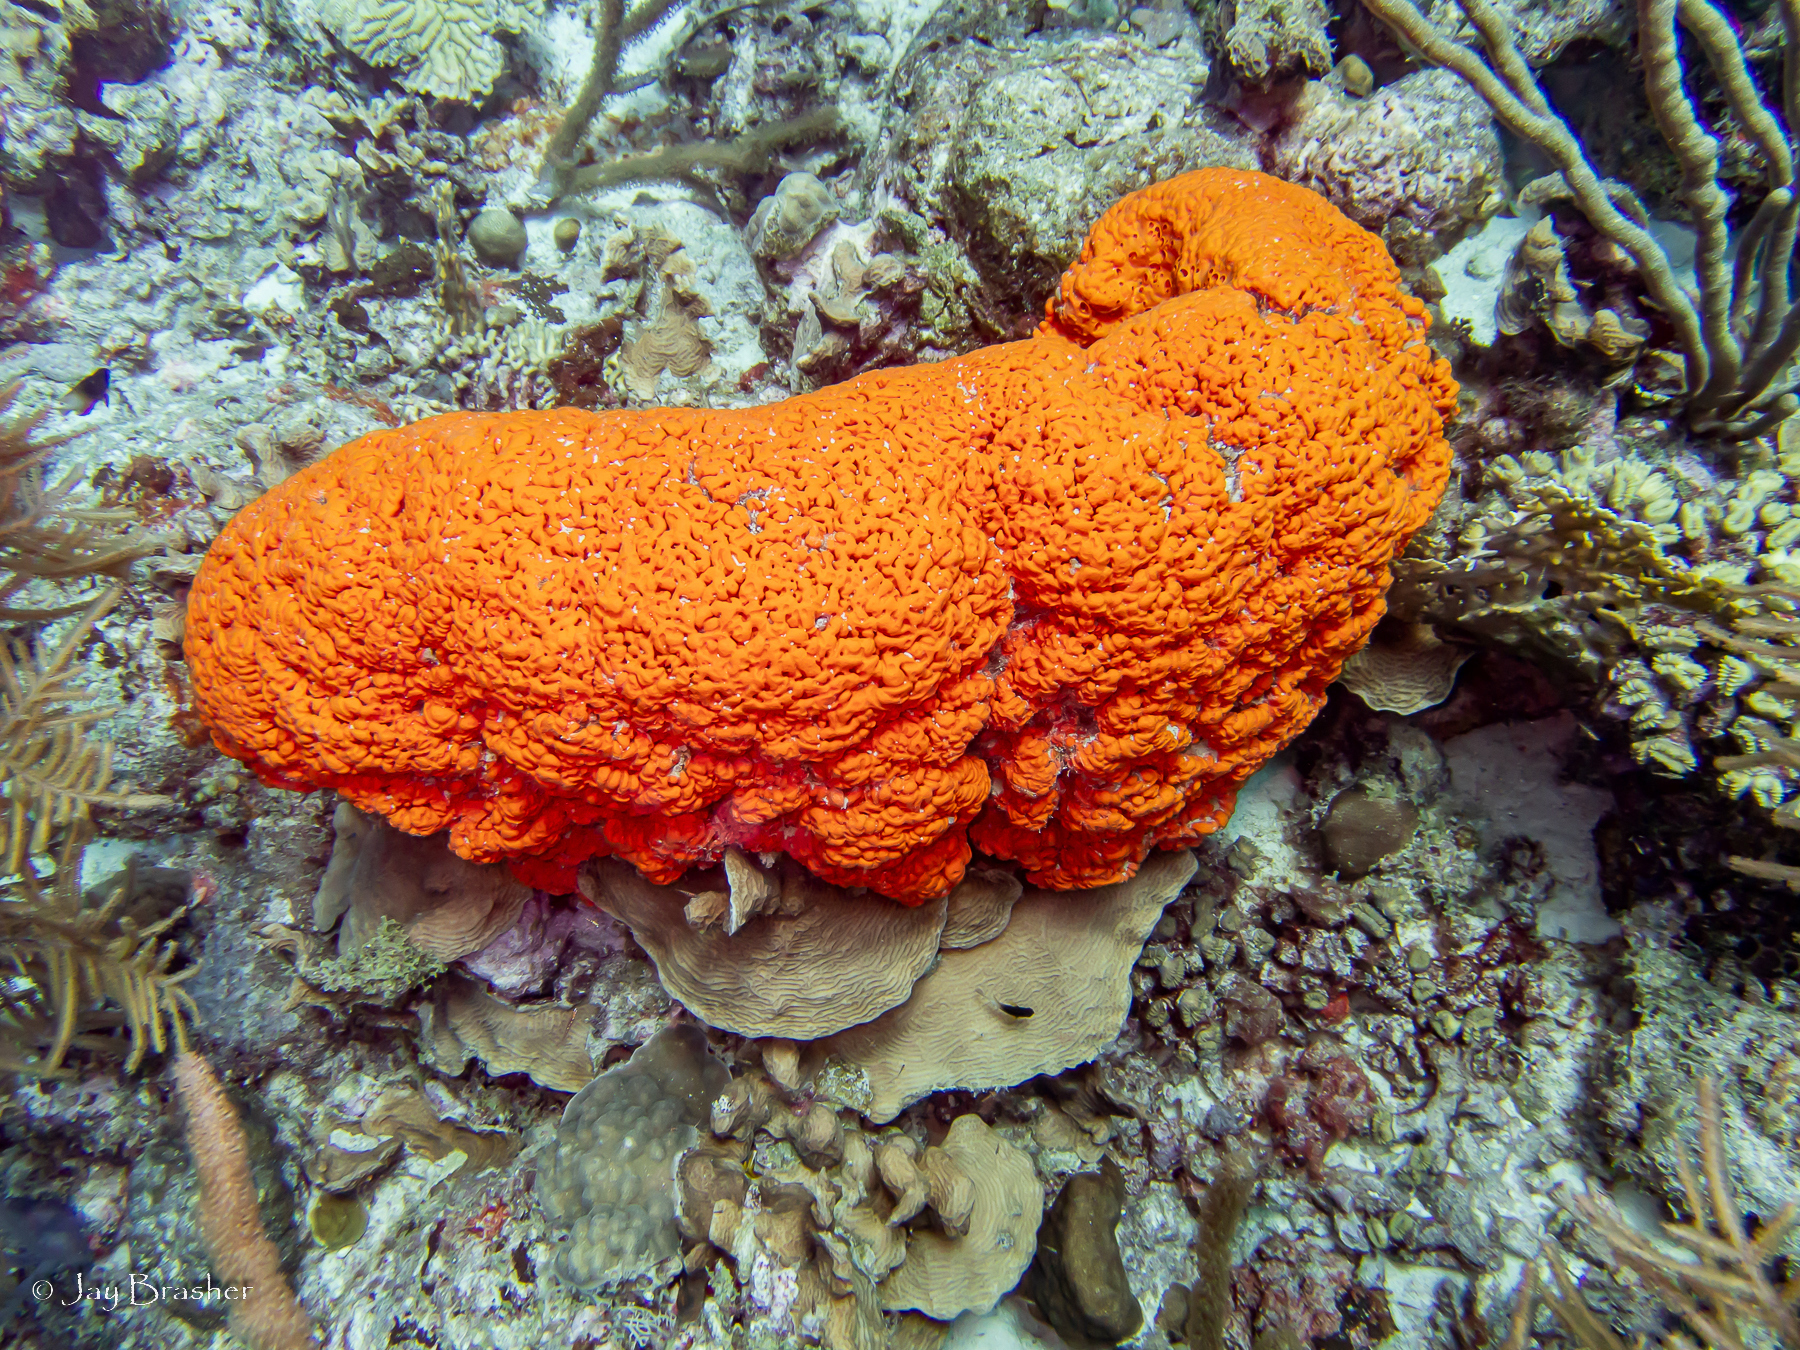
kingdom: Animalia
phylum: Porifera
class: Demospongiae
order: Agelasida
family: Agelasidae
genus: Agelas
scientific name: Agelas clathrodes
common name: Orange elephant ear sponge
